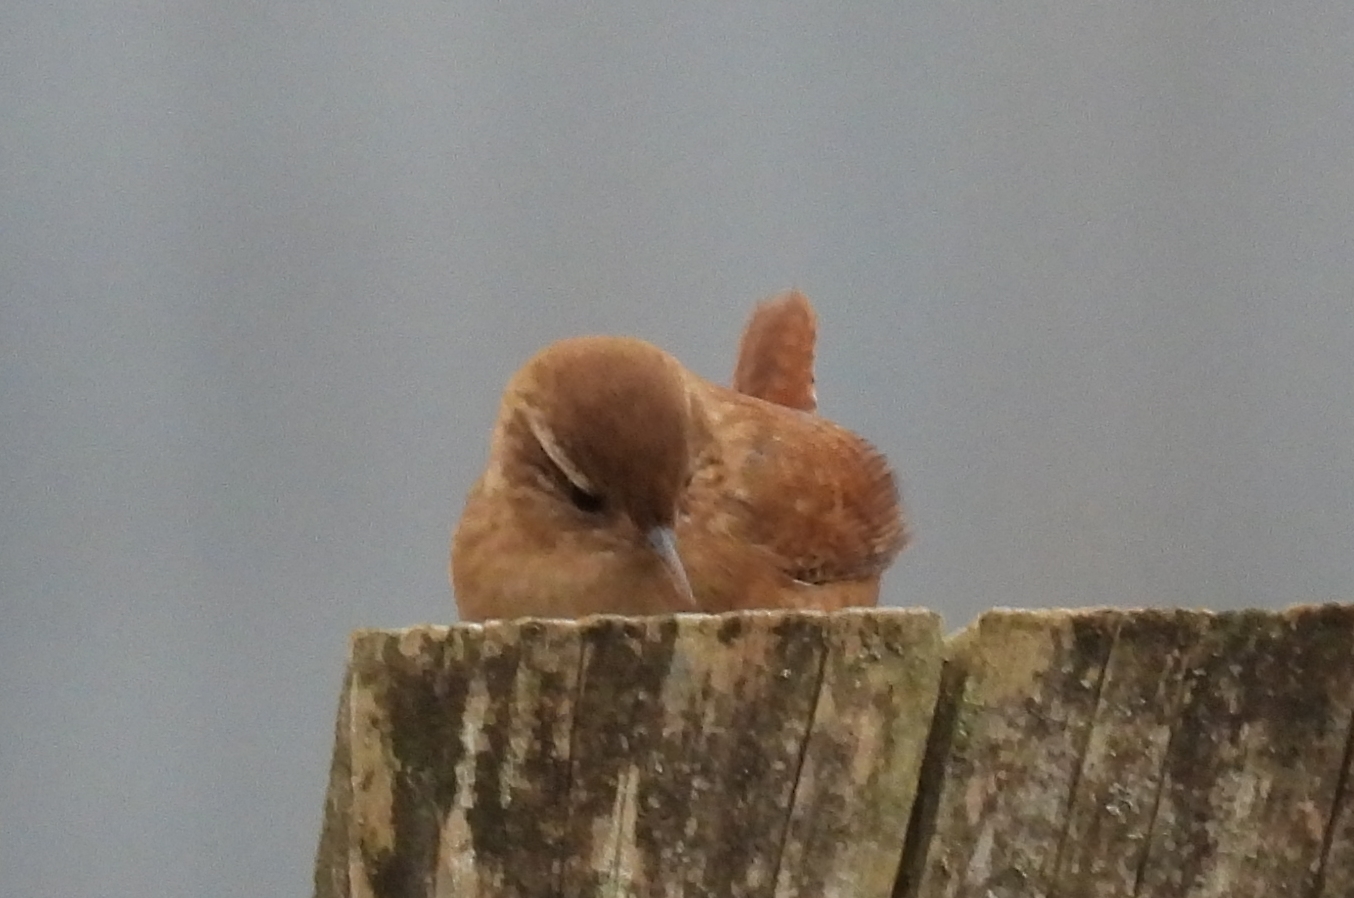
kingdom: Animalia
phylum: Chordata
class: Aves
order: Passeriformes
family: Troglodytidae
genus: Troglodytes
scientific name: Troglodytes troglodytes
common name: Eurasian wren
